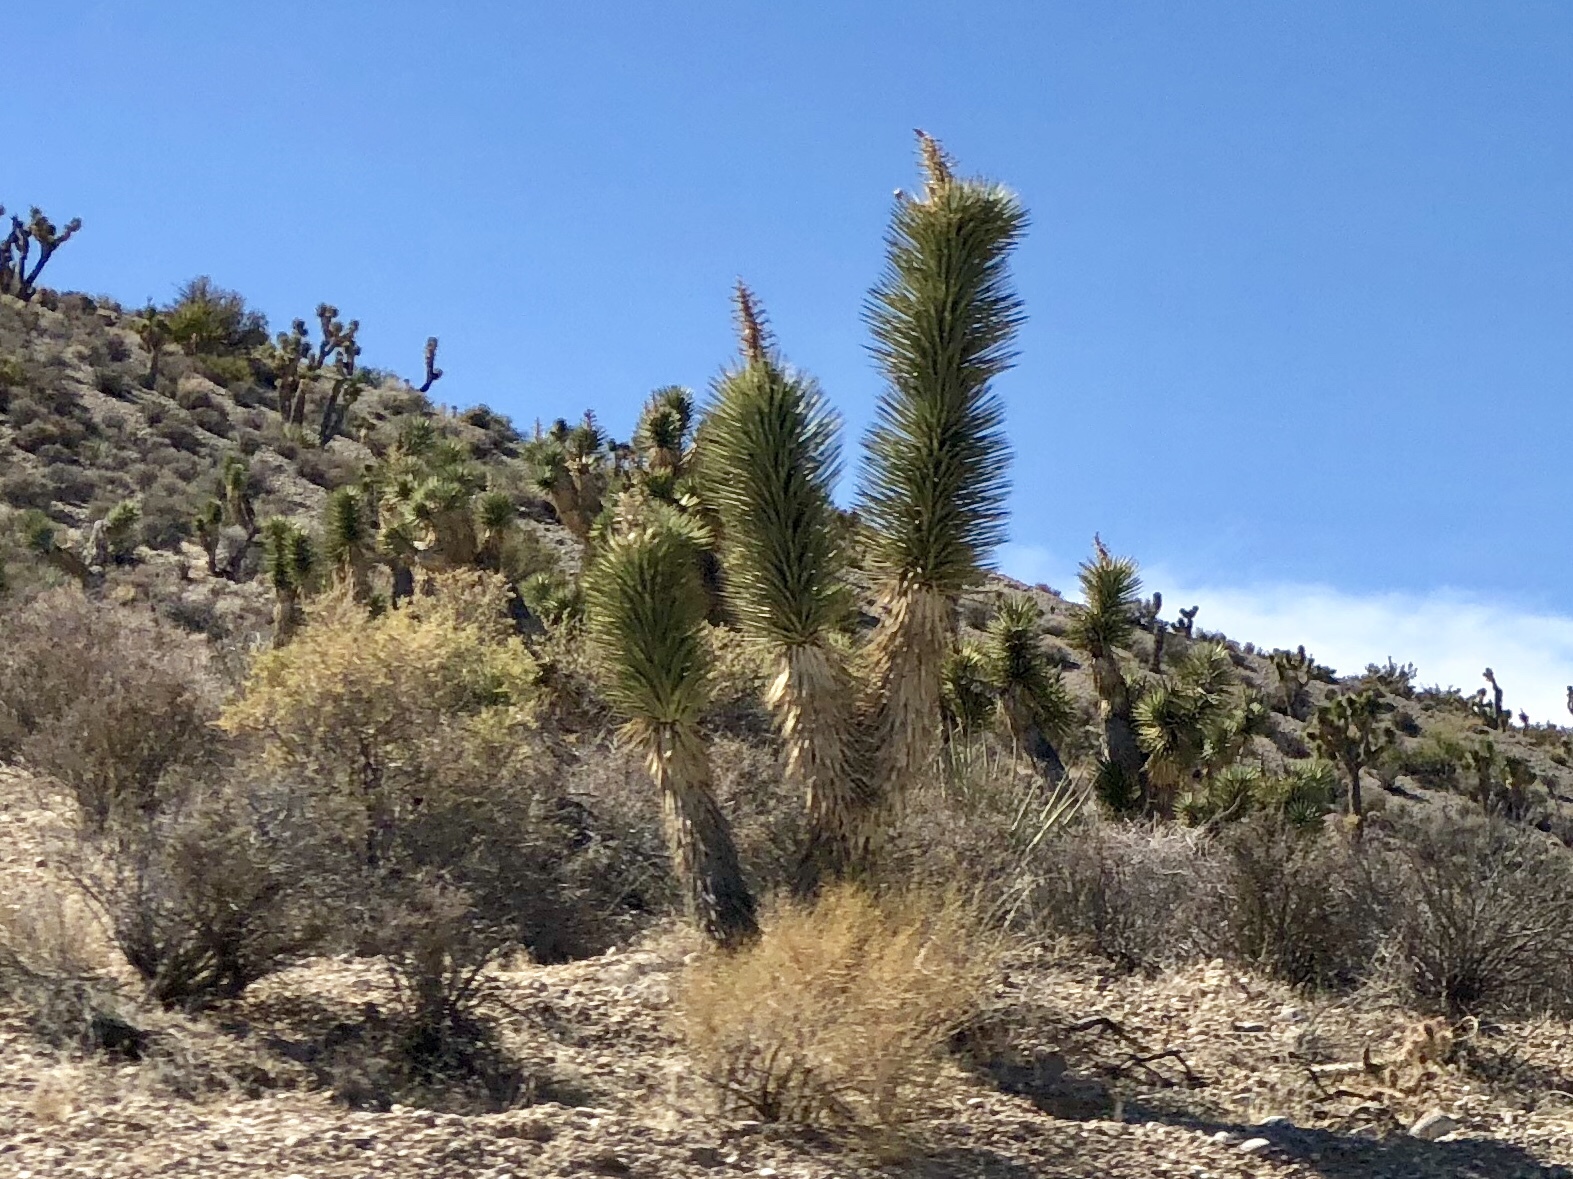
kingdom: Plantae
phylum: Tracheophyta
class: Liliopsida
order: Asparagales
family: Asparagaceae
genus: Yucca
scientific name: Yucca brevifolia
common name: Joshua tree
